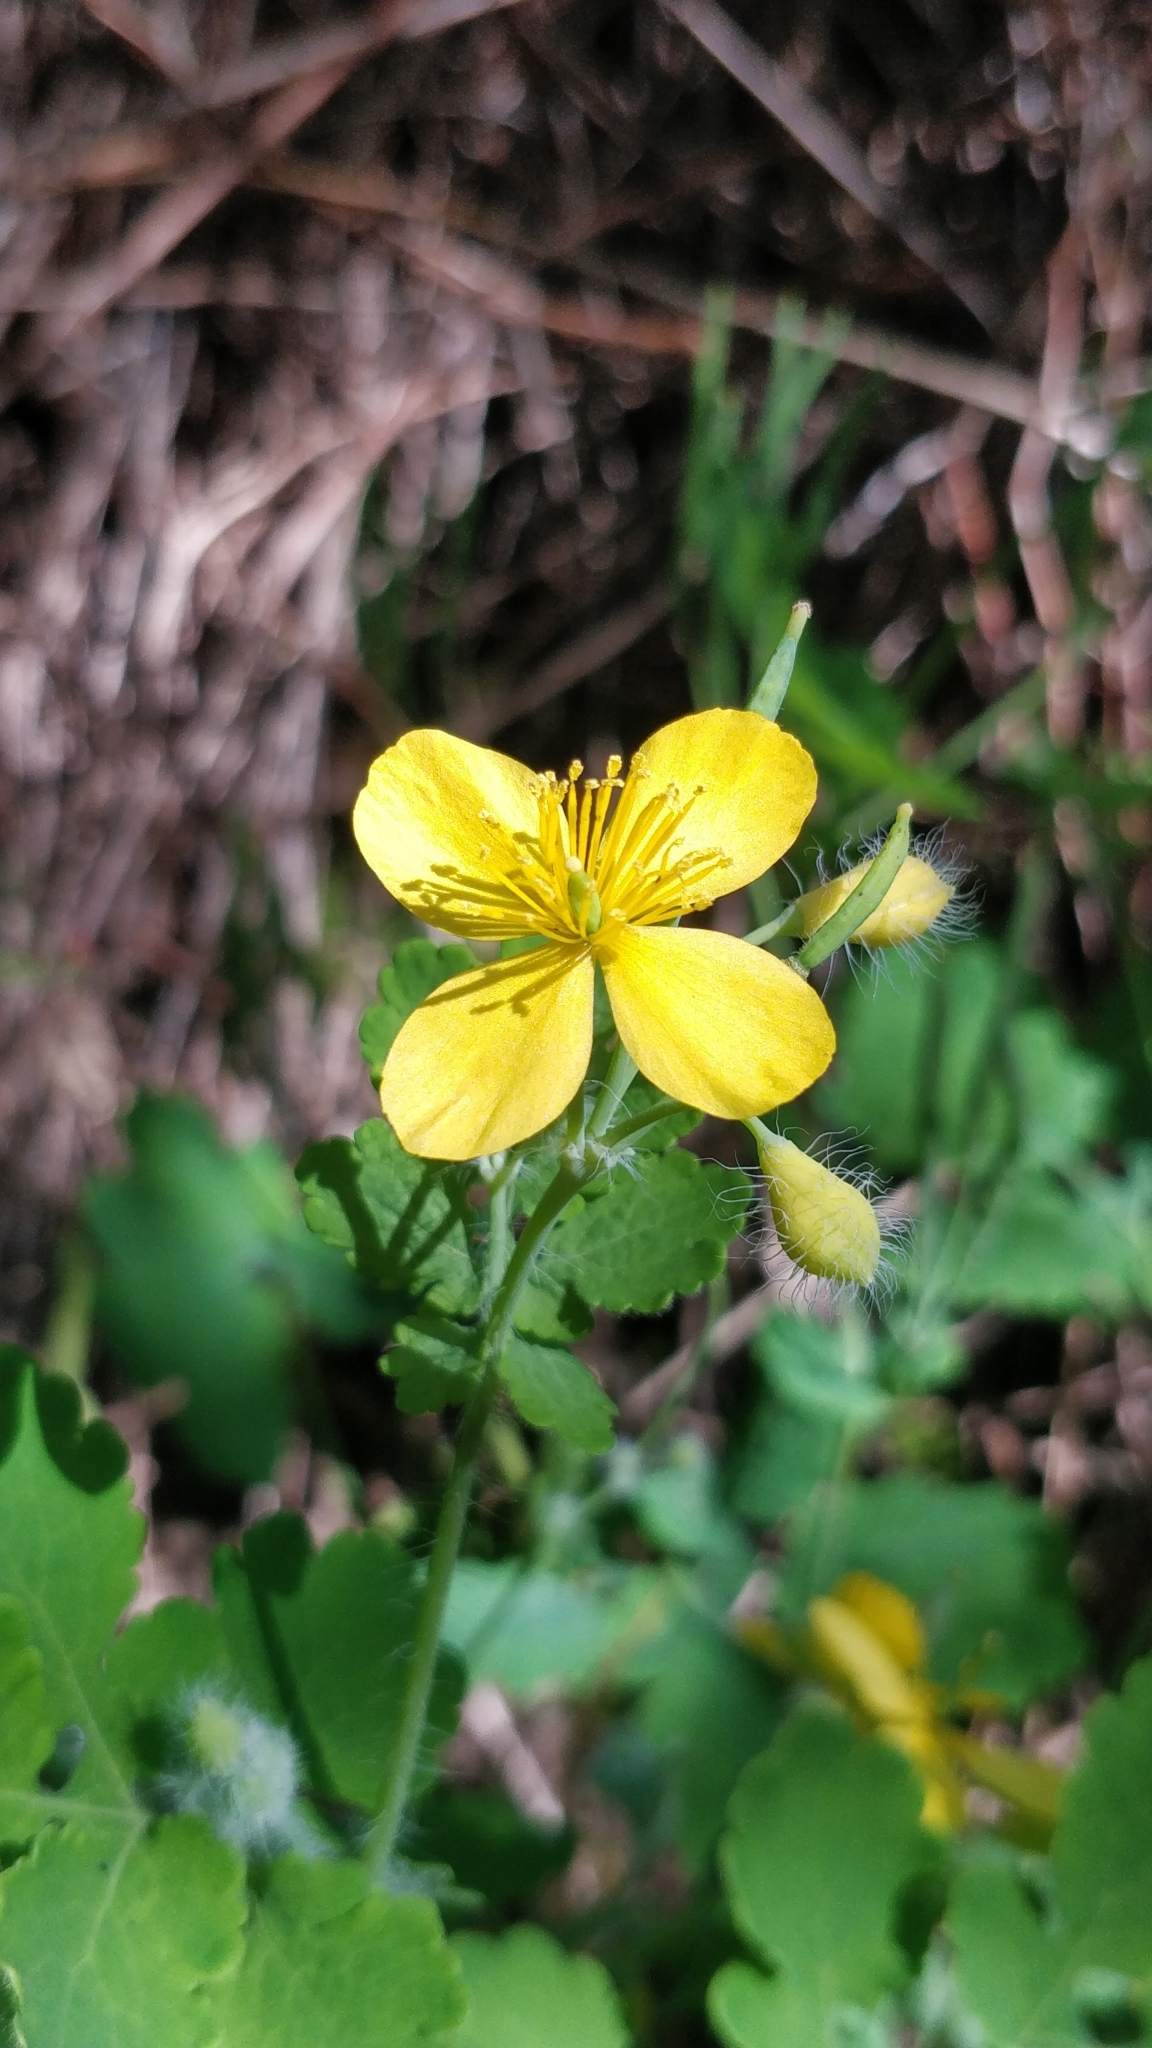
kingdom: Plantae
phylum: Tracheophyta
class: Magnoliopsida
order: Ranunculales
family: Papaveraceae
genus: Chelidonium
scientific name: Chelidonium majus
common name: Greater celandine
